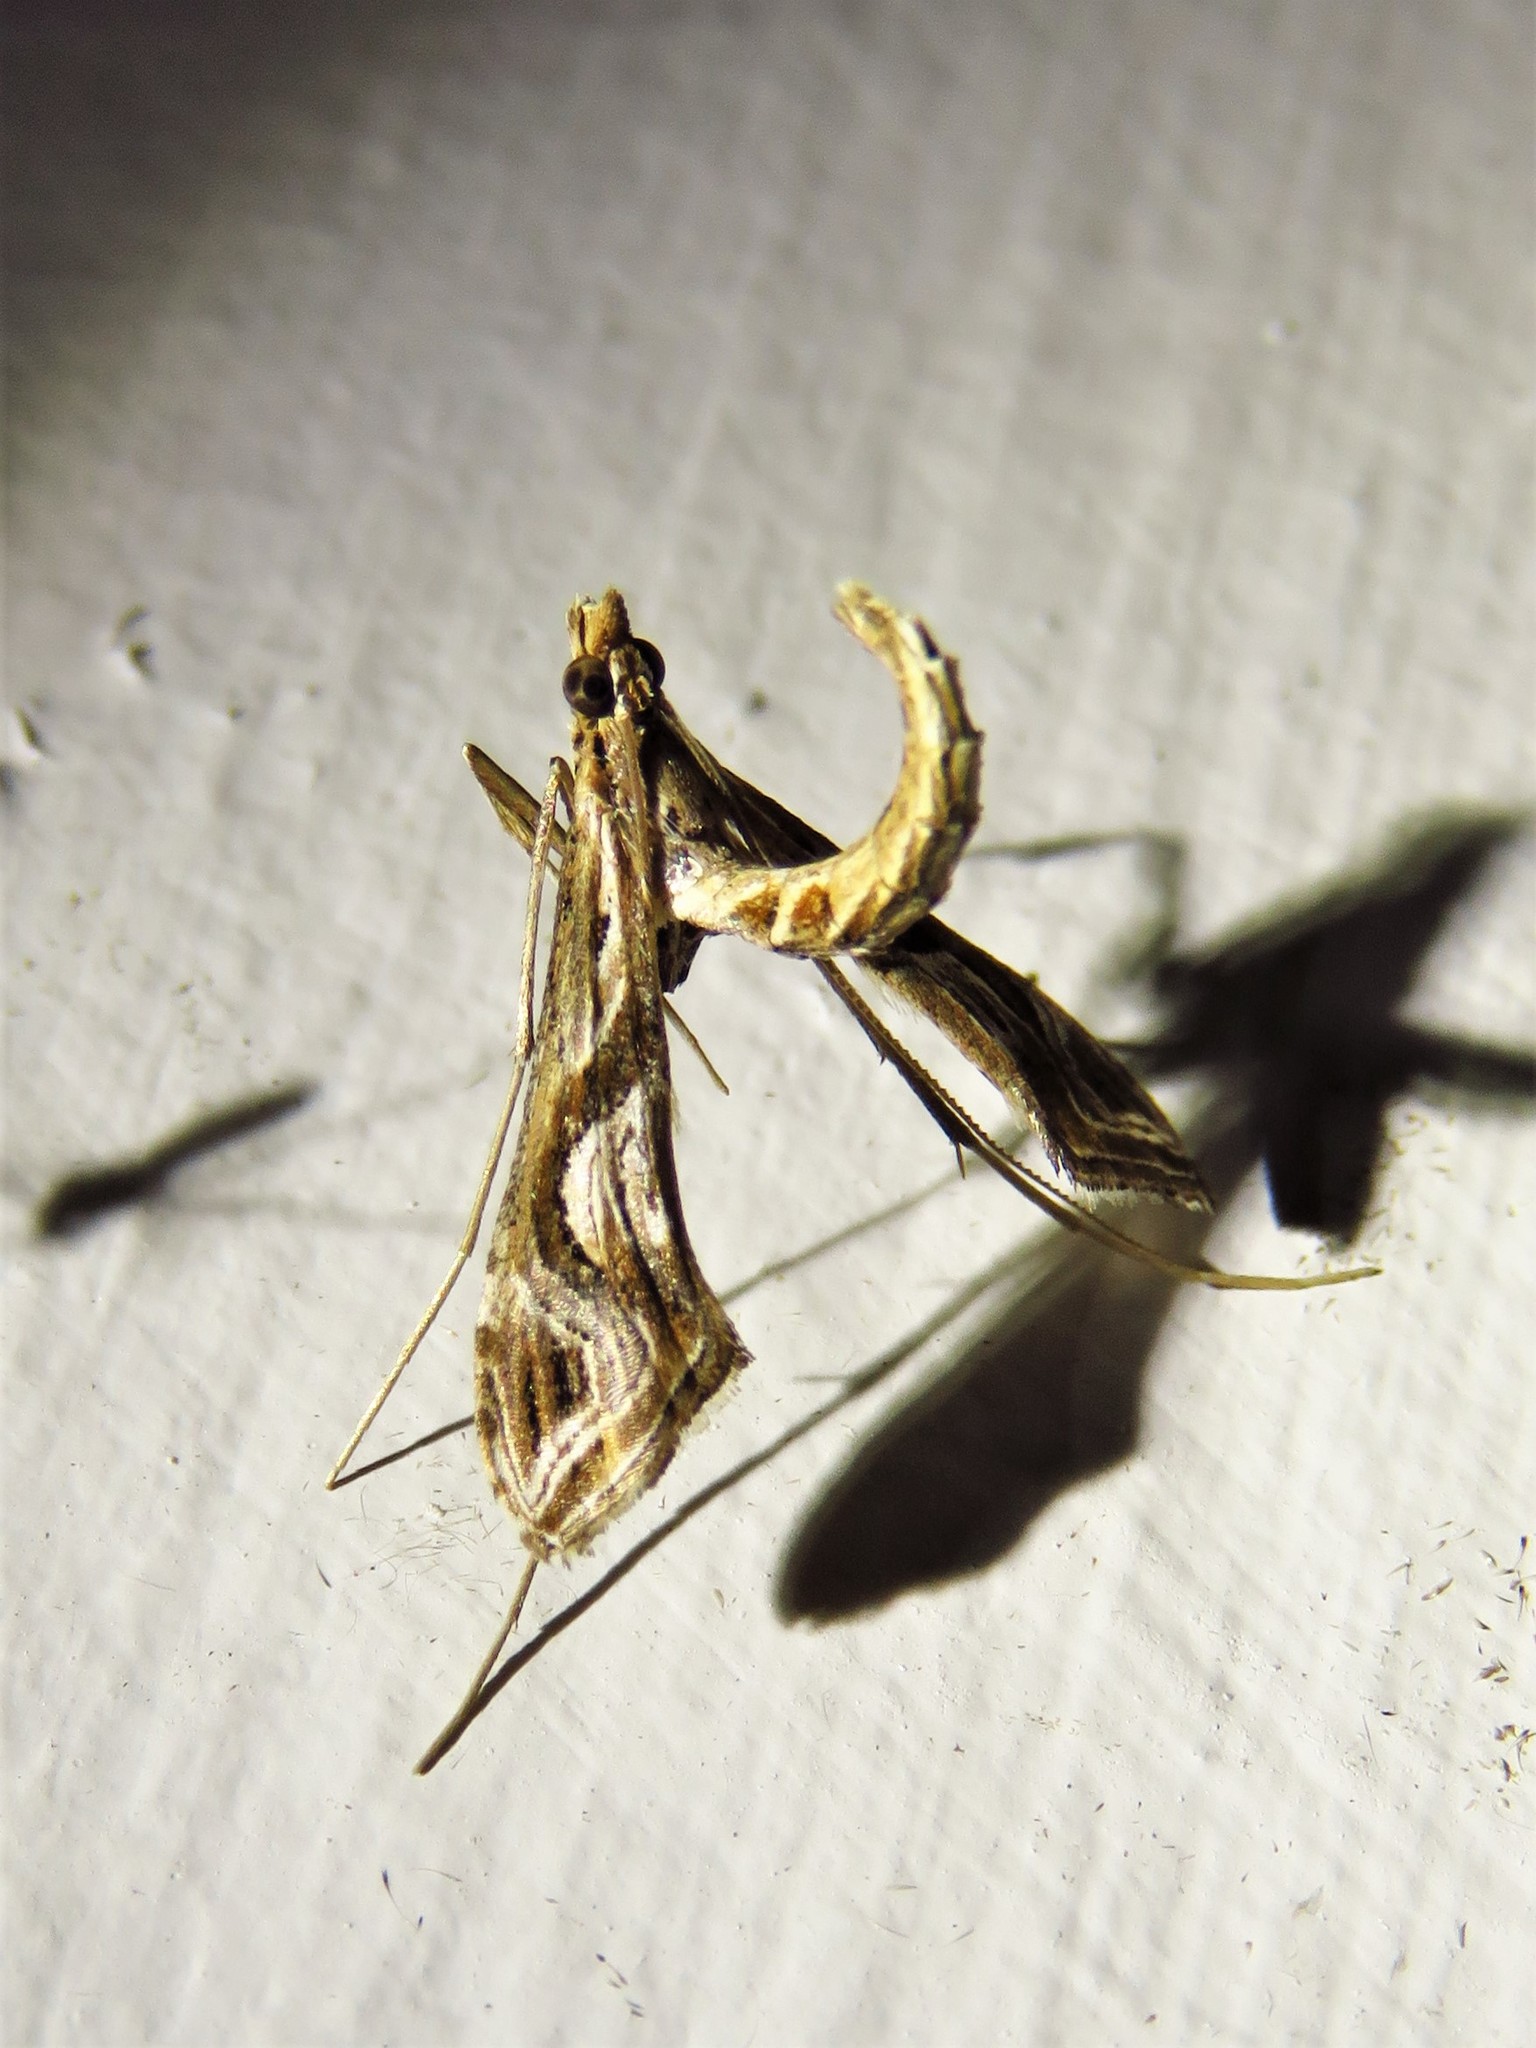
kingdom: Animalia
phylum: Arthropoda
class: Insecta
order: Lepidoptera
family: Crambidae
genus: Lineodes
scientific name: Lineodes integra
